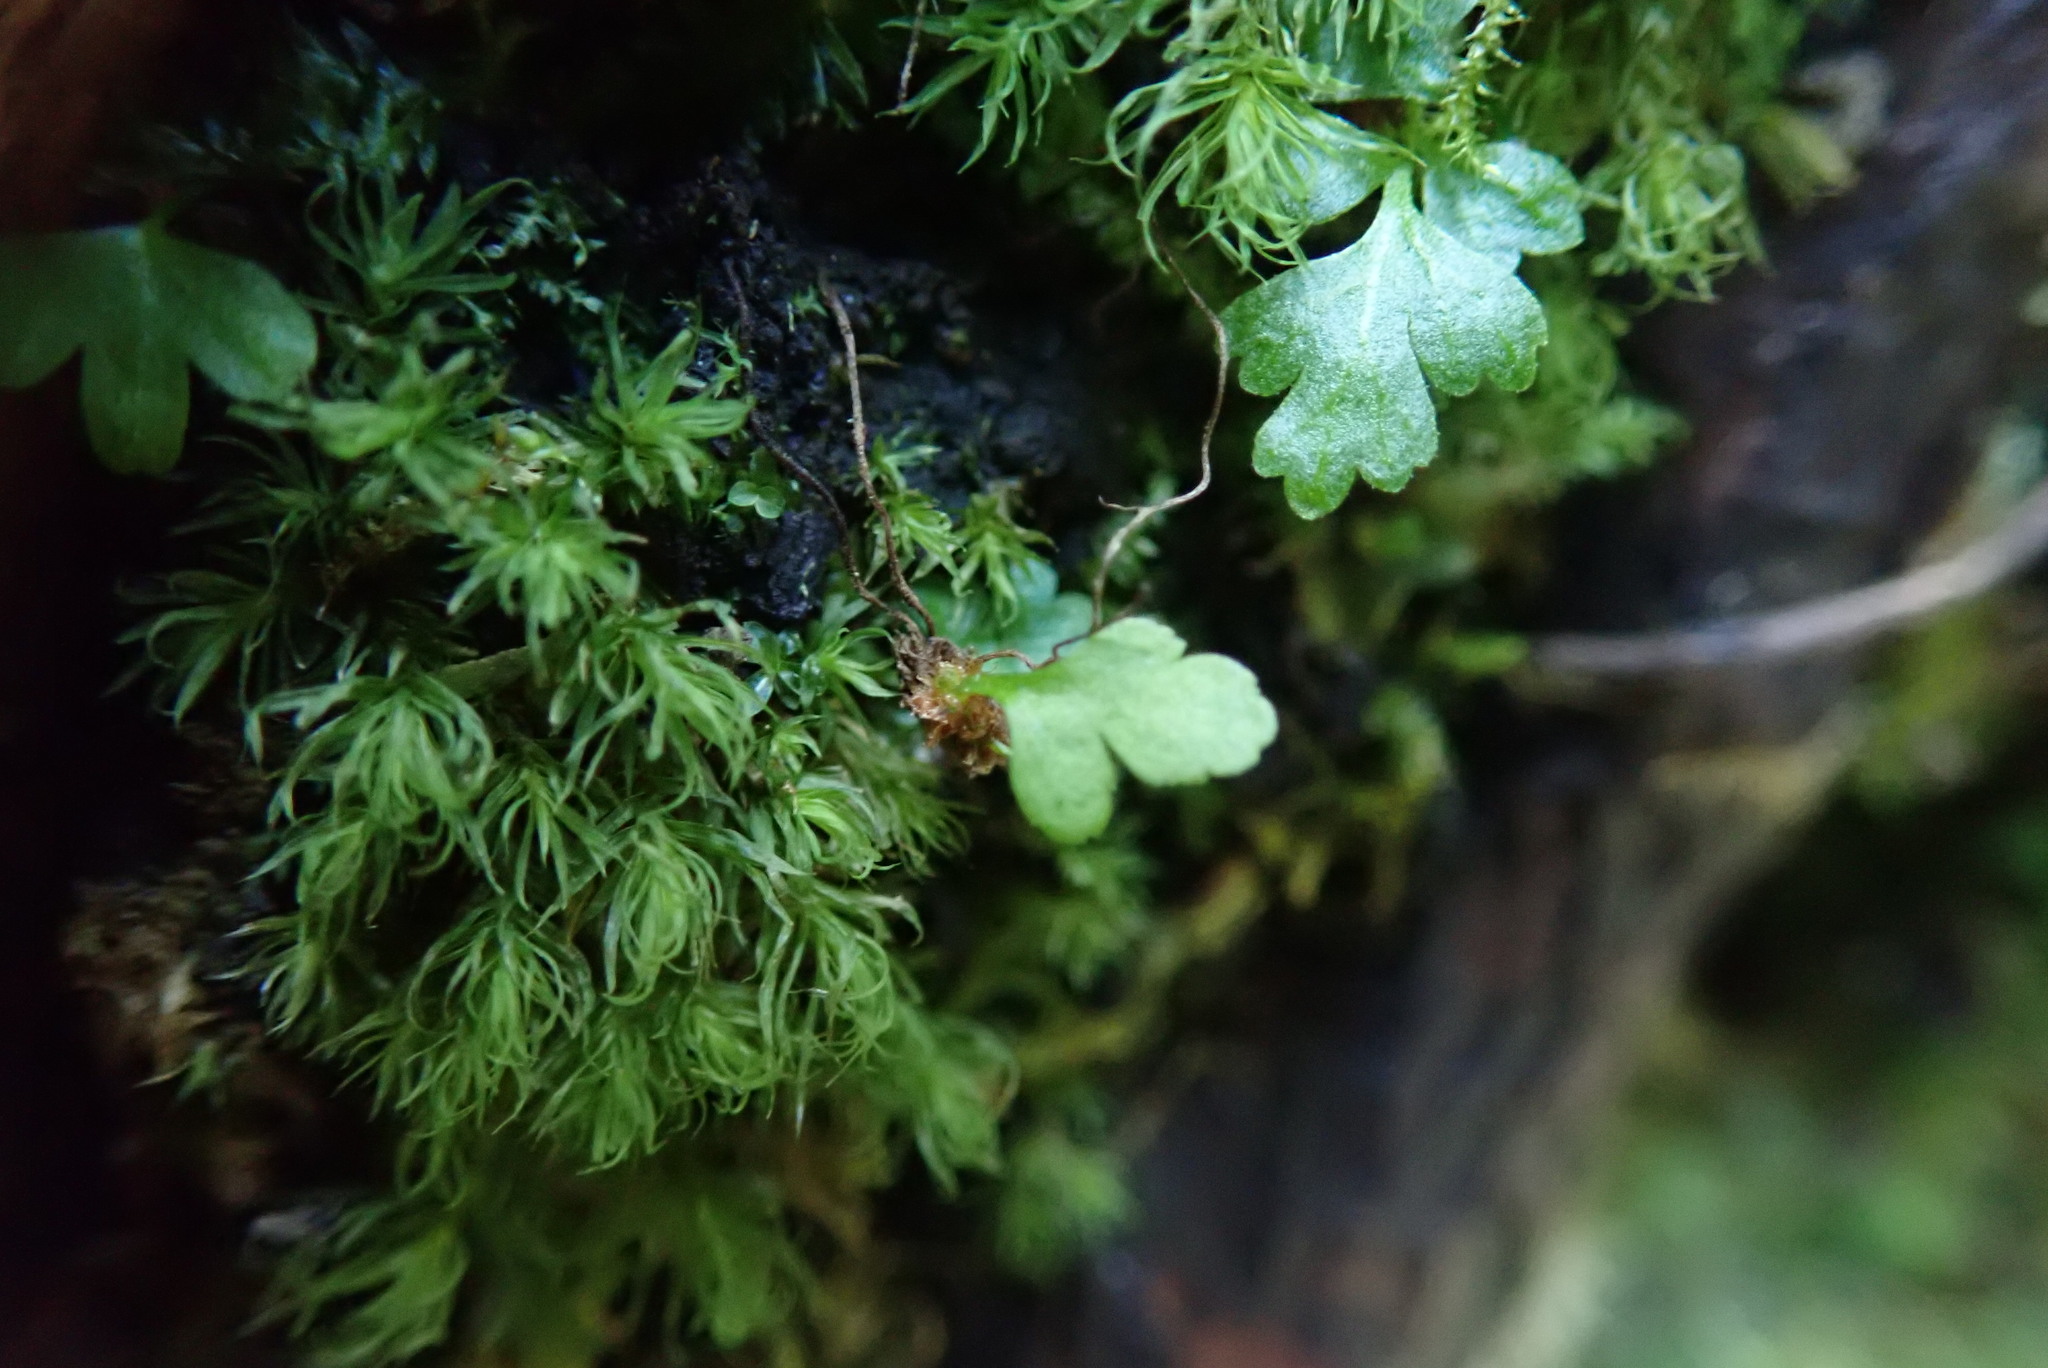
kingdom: Plantae
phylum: Tracheophyta
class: Polypodiopsida
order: Polypodiales
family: Polypodiaceae
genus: Polypodium
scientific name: Polypodium glycyrrhiza
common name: Licorice fern
